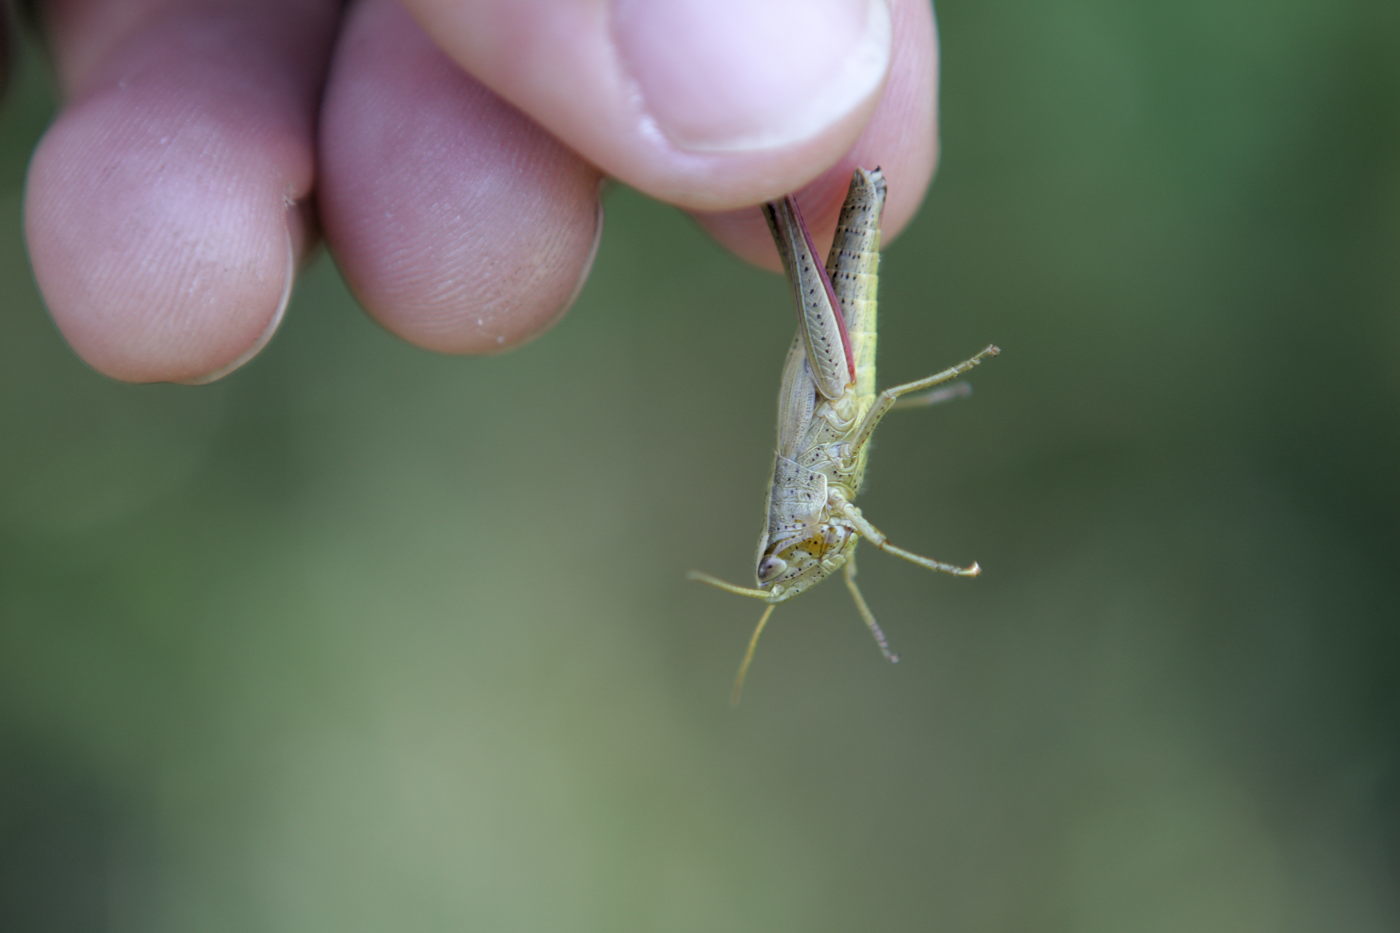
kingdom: Animalia
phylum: Arthropoda
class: Insecta
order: Orthoptera
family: Acrididae
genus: Chrysochraon
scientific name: Chrysochraon dispar
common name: Large gold grasshopper
